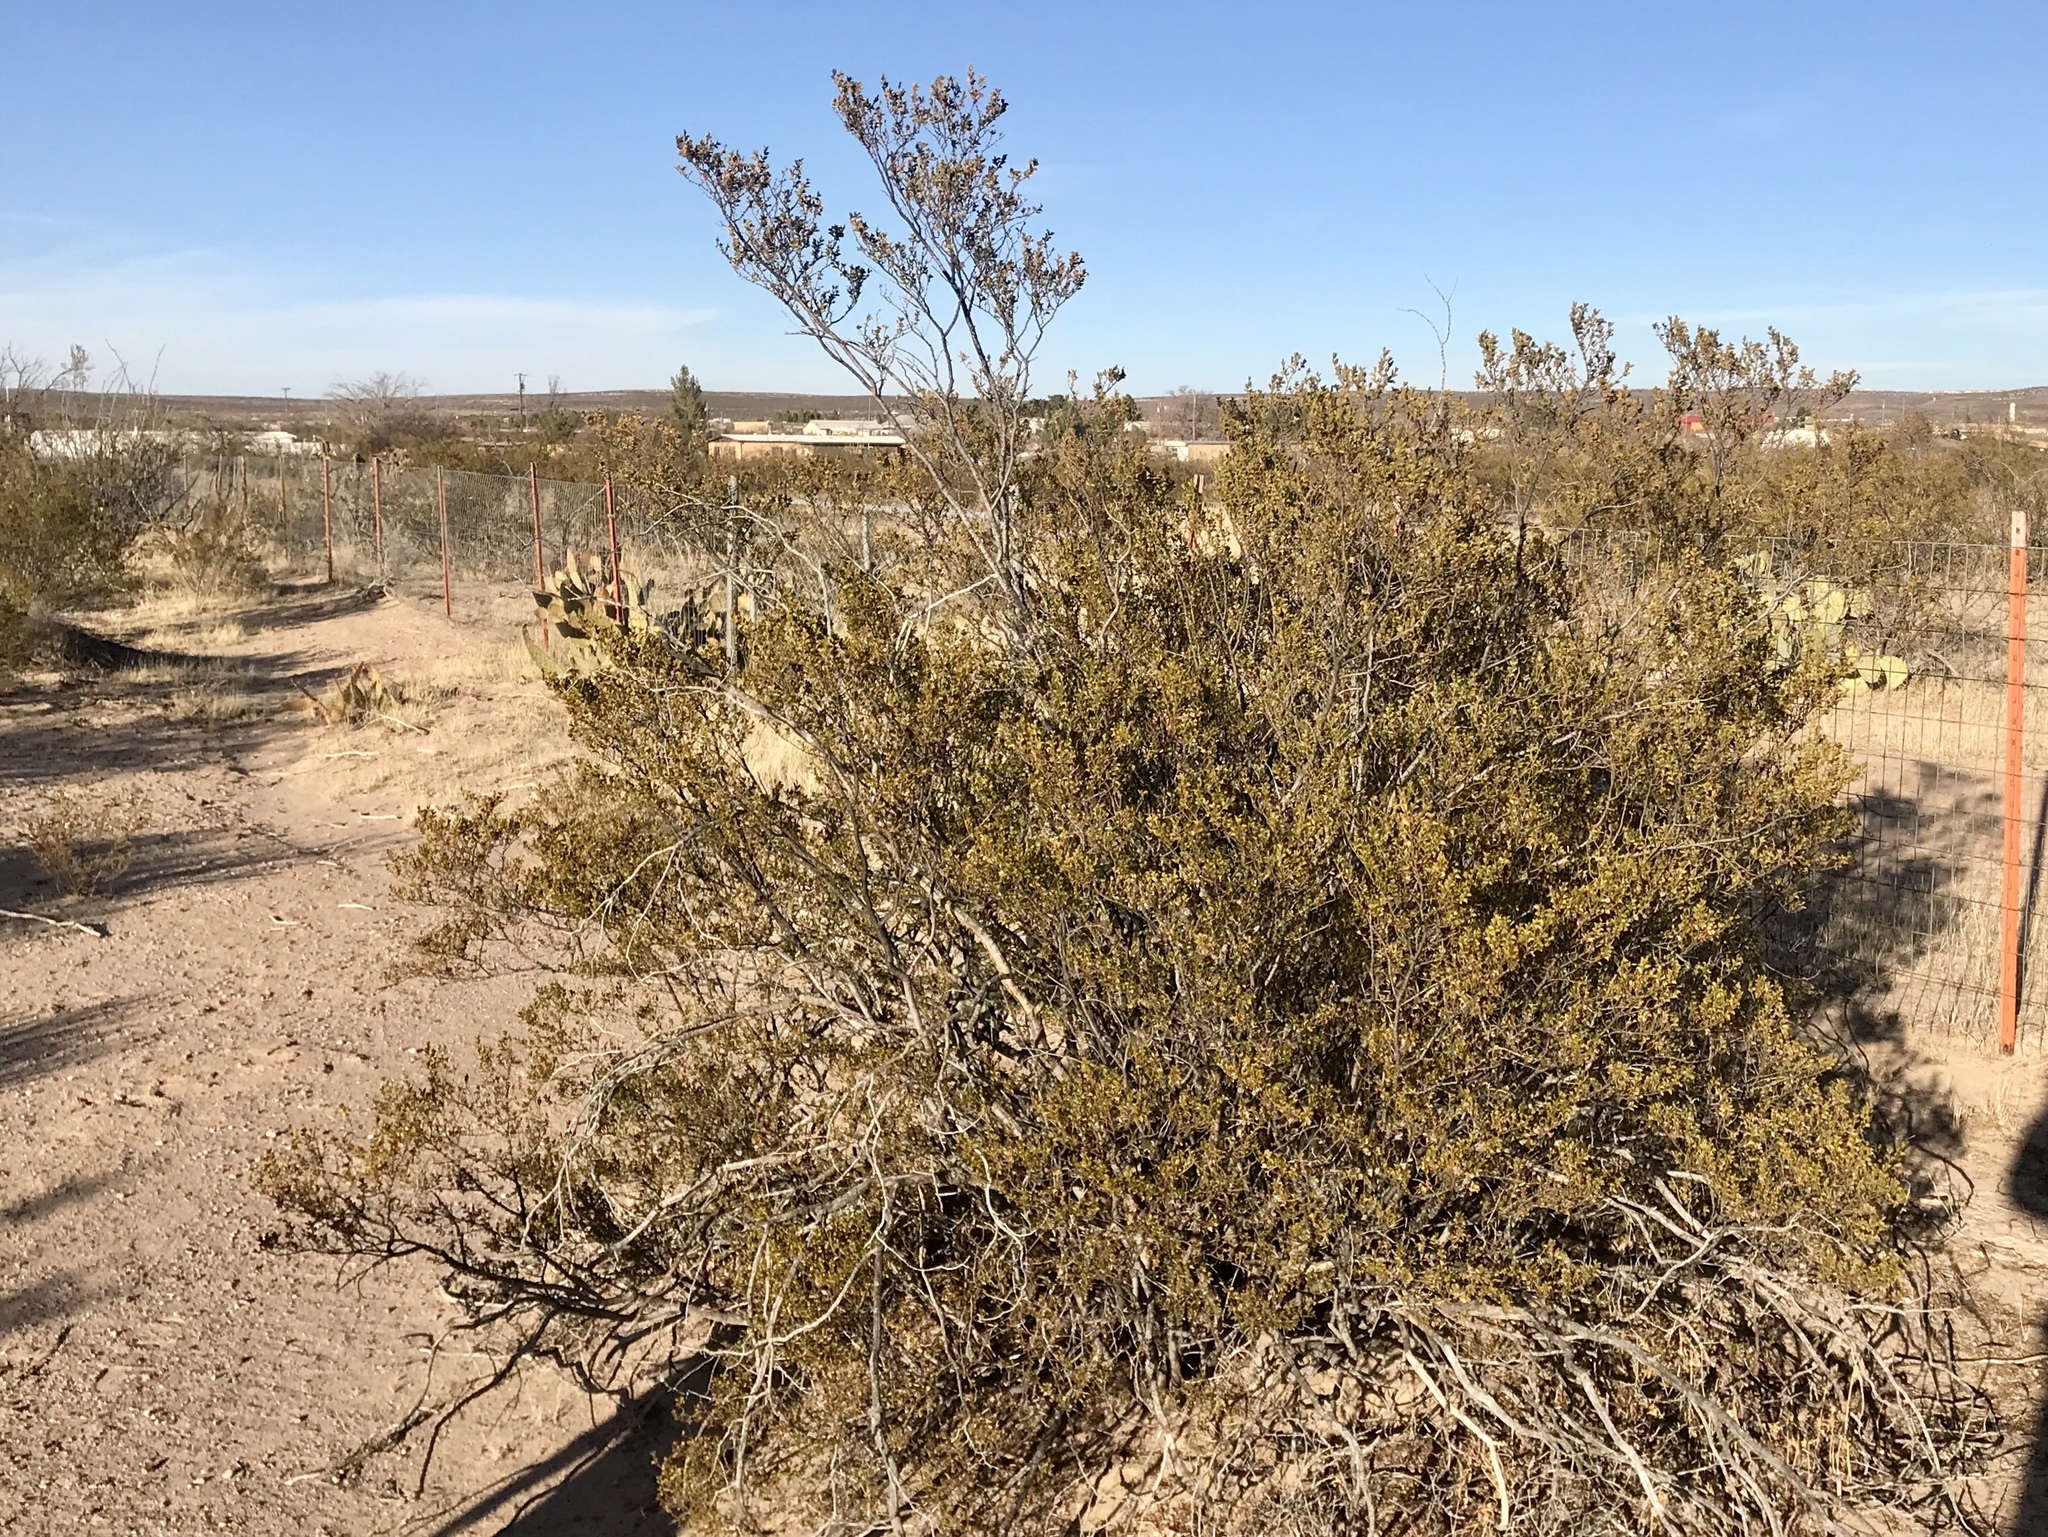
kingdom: Plantae
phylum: Tracheophyta
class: Magnoliopsida
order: Zygophyllales
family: Zygophyllaceae
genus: Larrea
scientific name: Larrea tridentata
